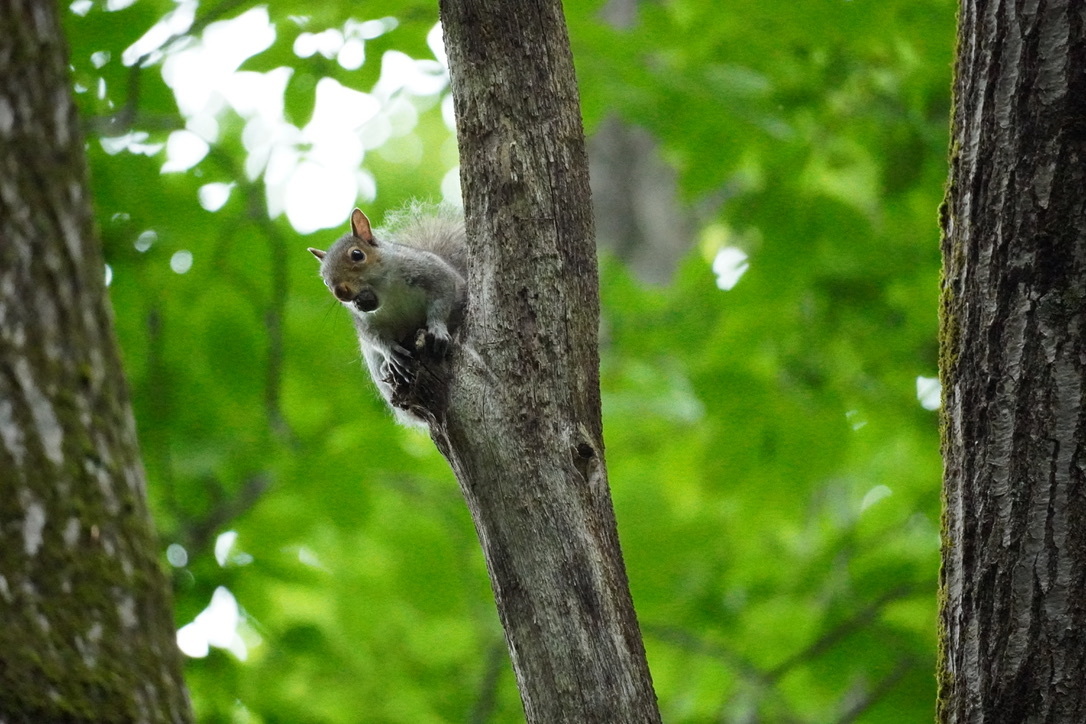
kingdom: Animalia
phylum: Chordata
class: Mammalia
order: Rodentia
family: Sciuridae
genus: Sciurus
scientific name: Sciurus carolinensis
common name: Eastern gray squirrel
